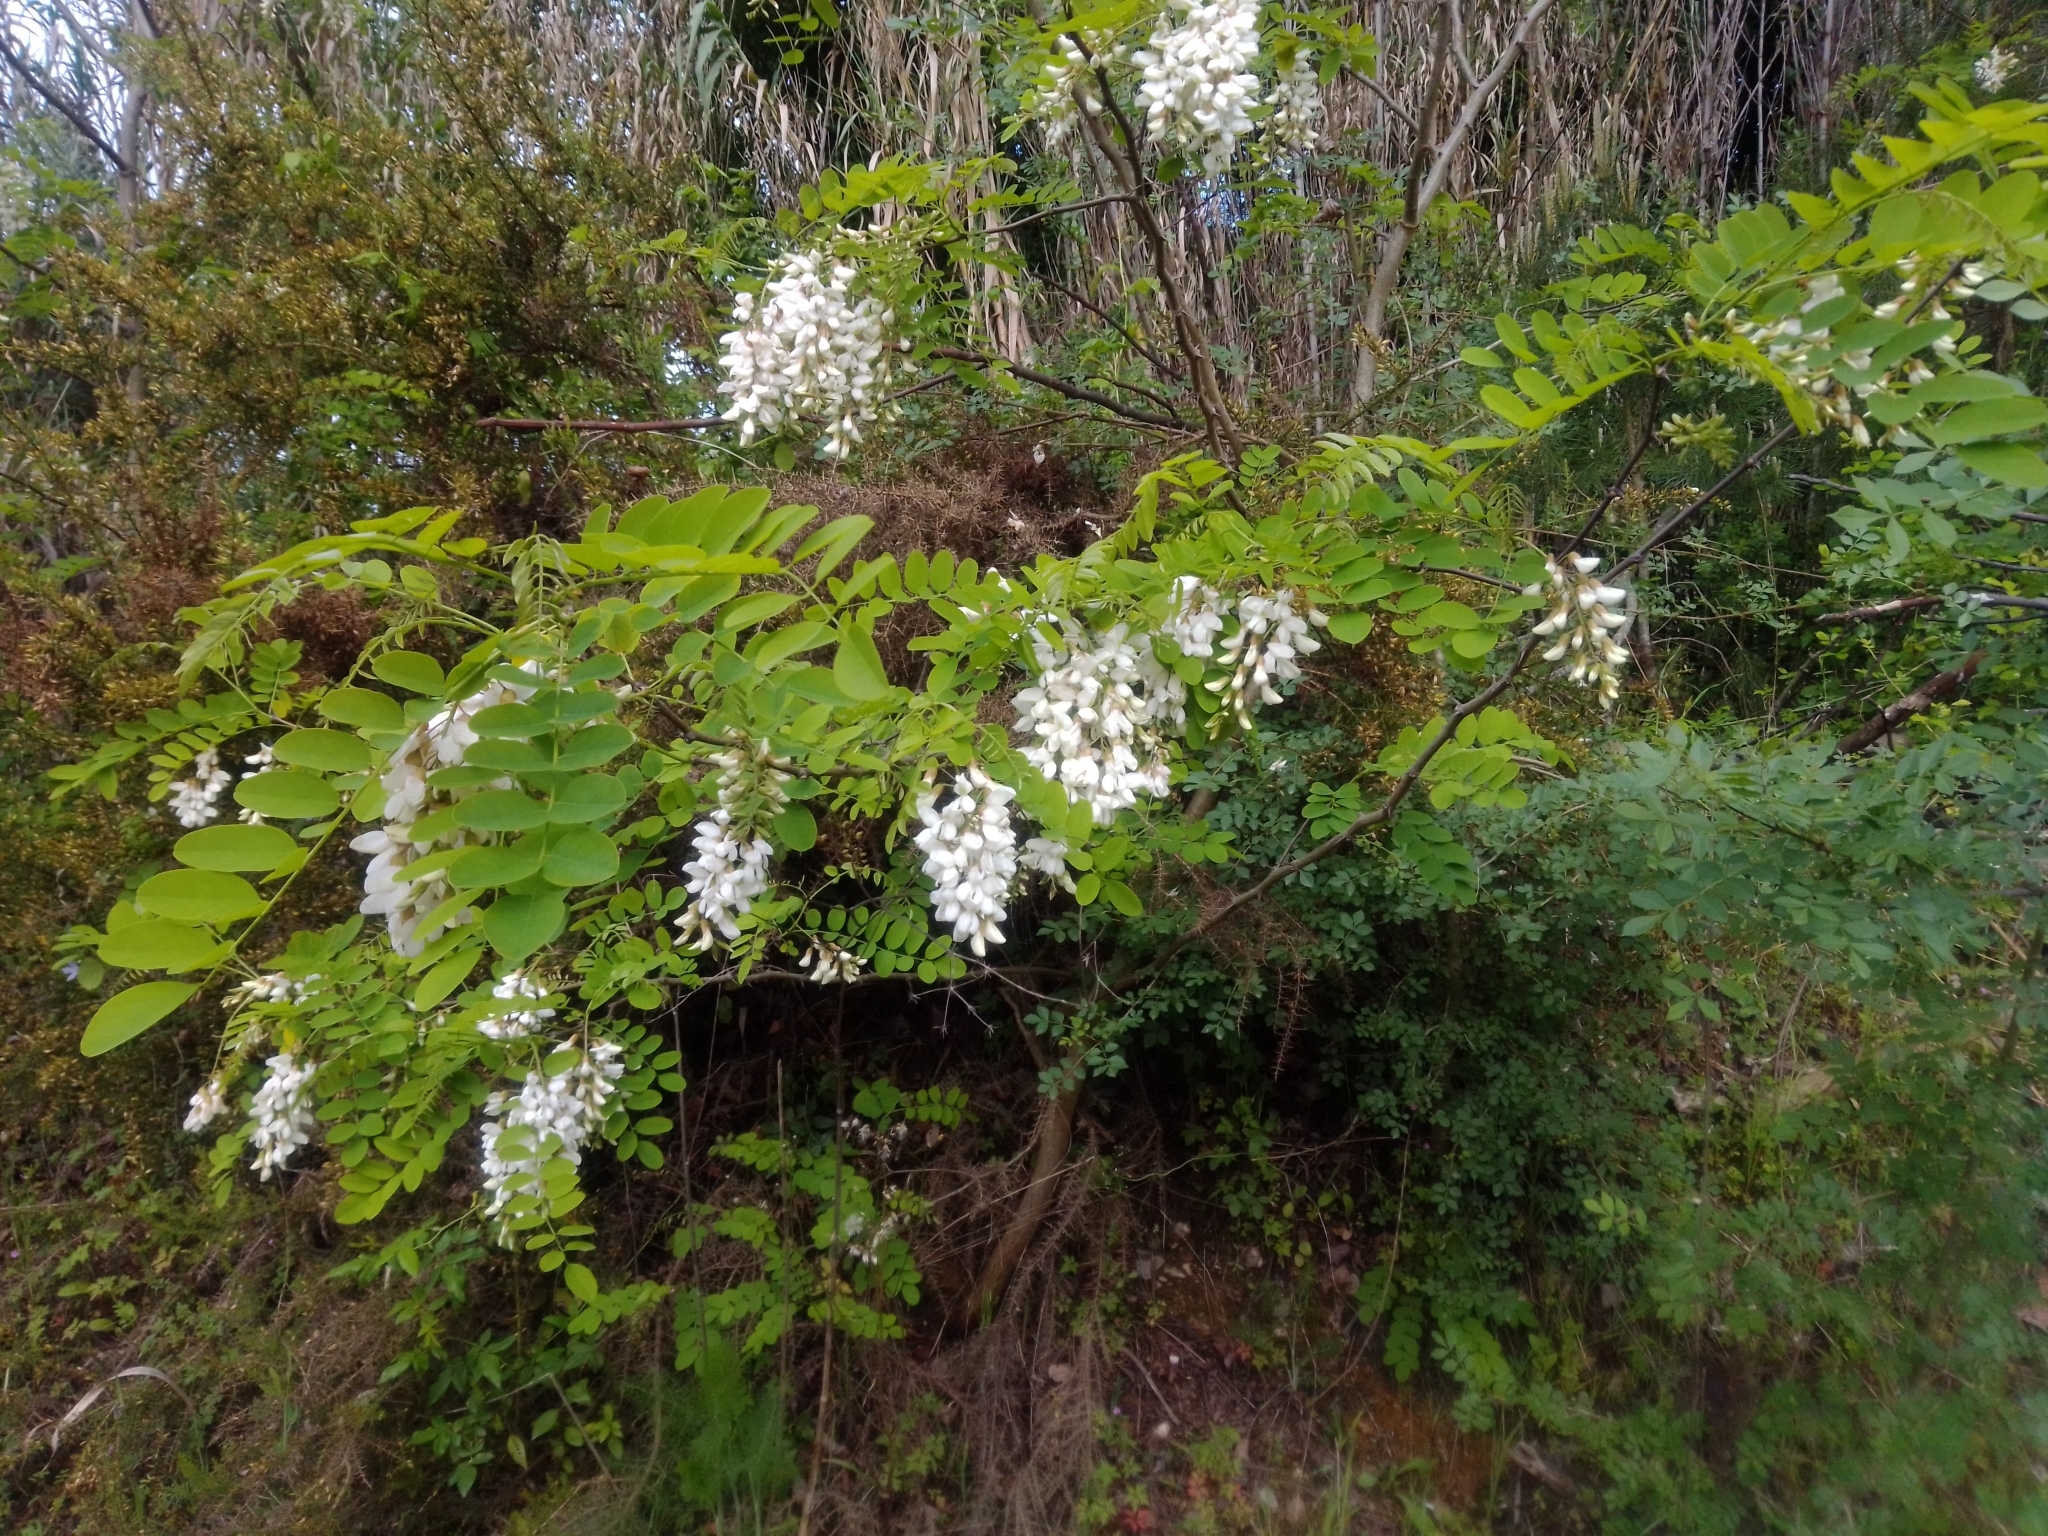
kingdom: Plantae
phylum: Tracheophyta
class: Magnoliopsida
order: Fabales
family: Fabaceae
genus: Robinia
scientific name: Robinia pseudoacacia
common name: Black locust
